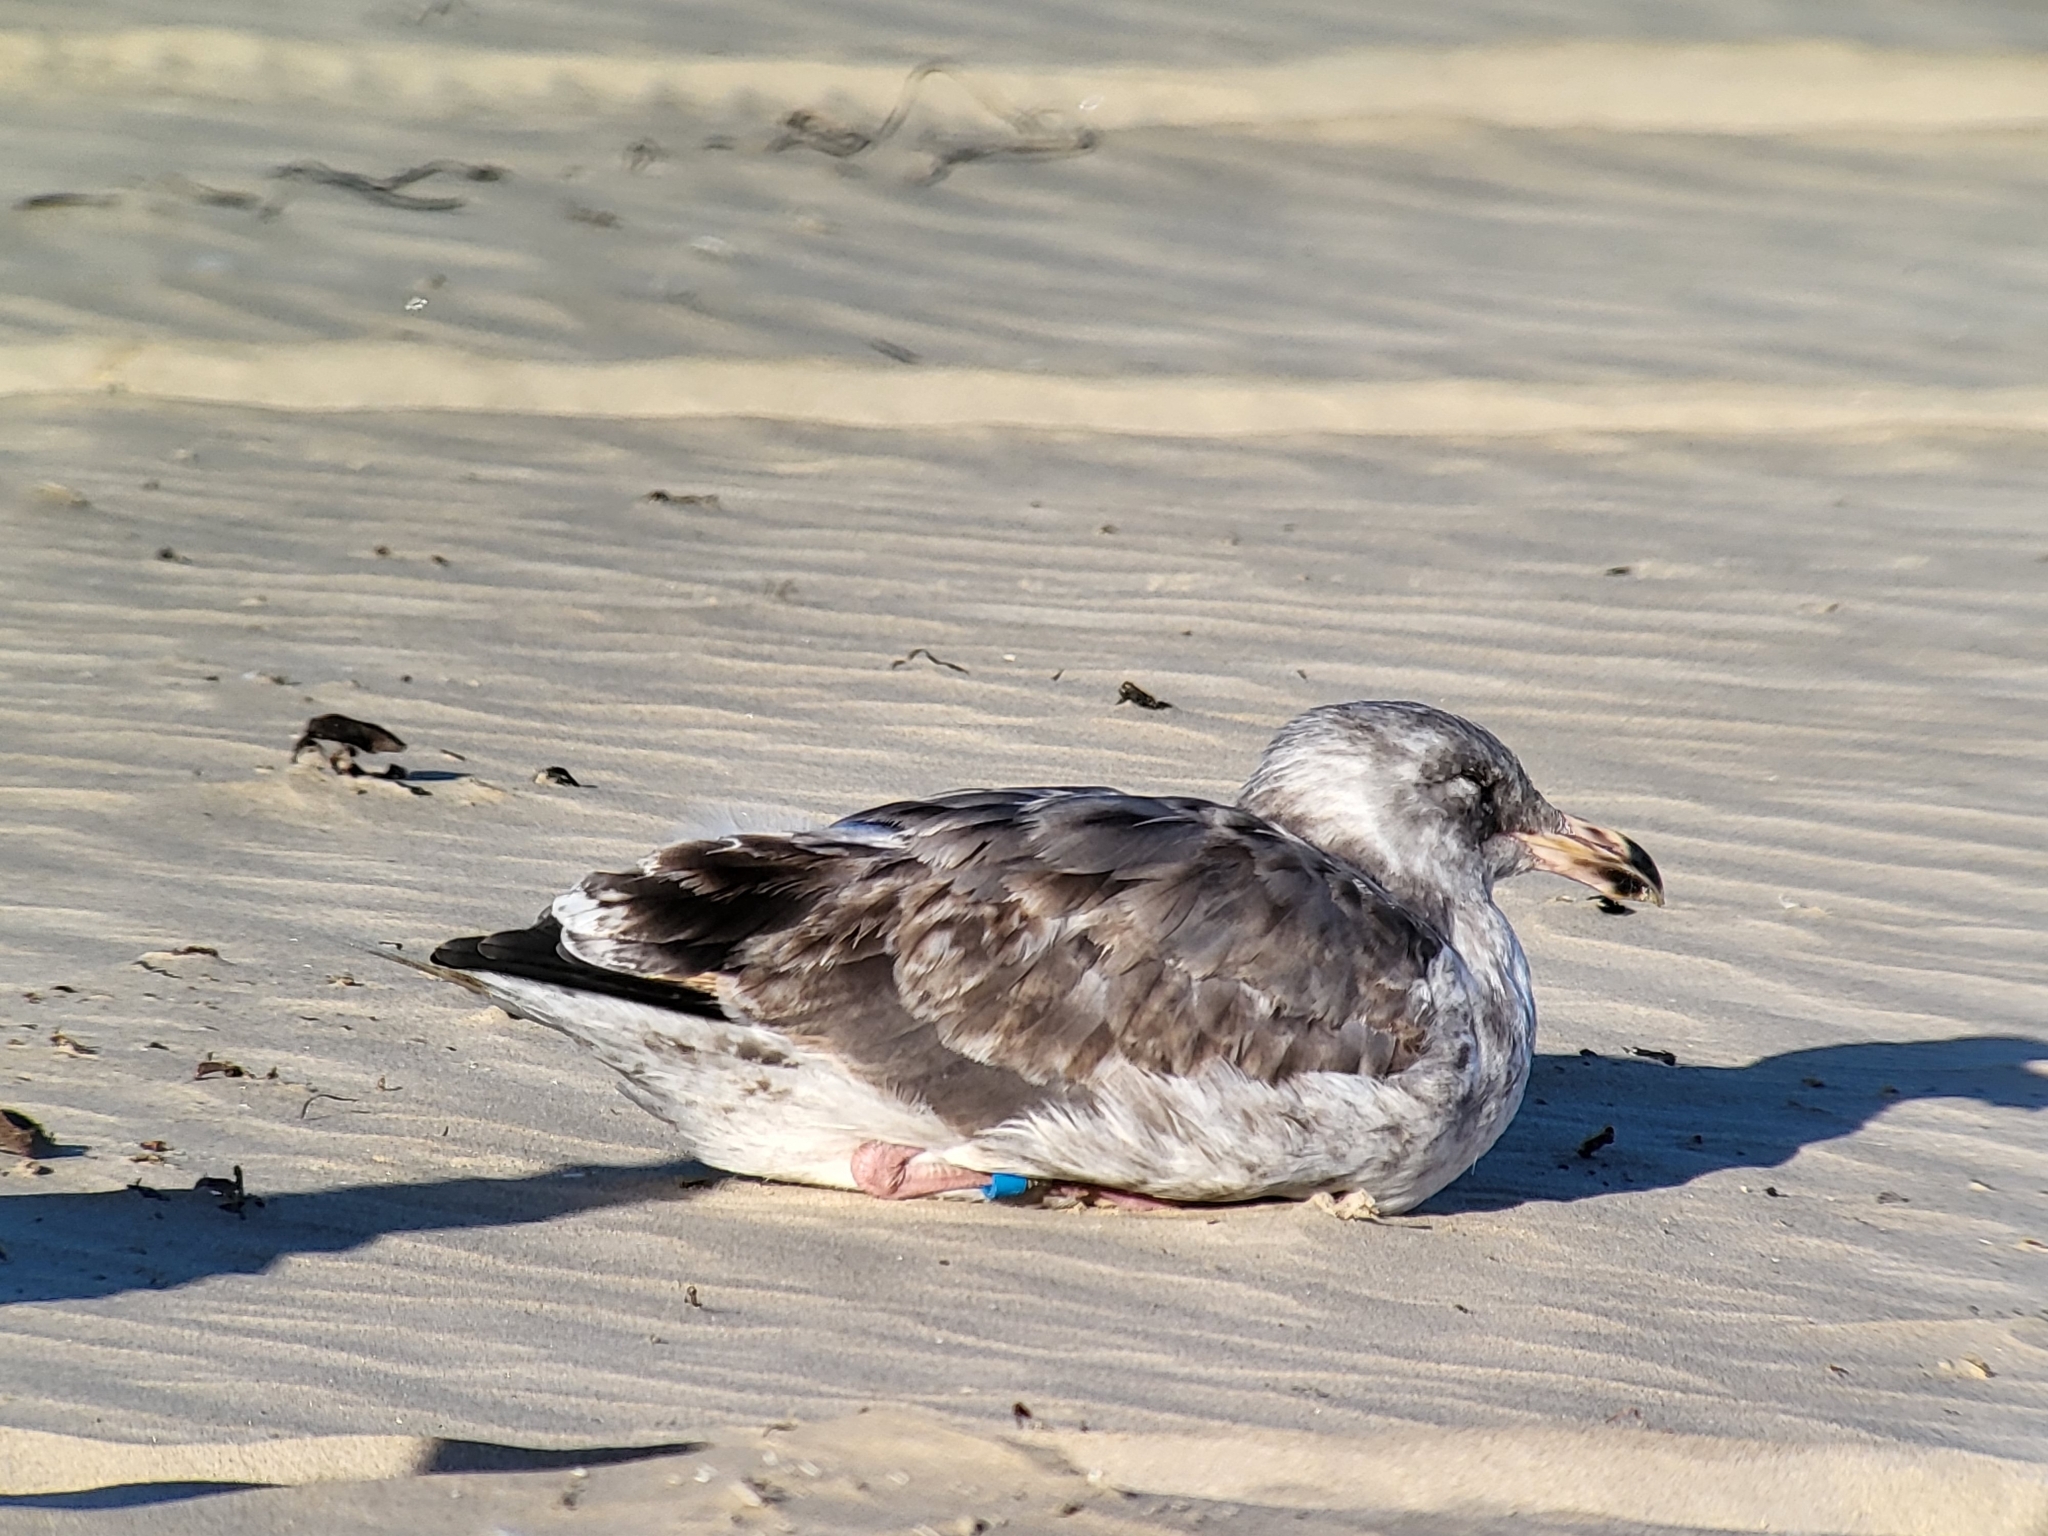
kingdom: Animalia
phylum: Chordata
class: Aves
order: Charadriiformes
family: Laridae
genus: Larus
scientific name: Larus occidentalis
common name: Western gull
